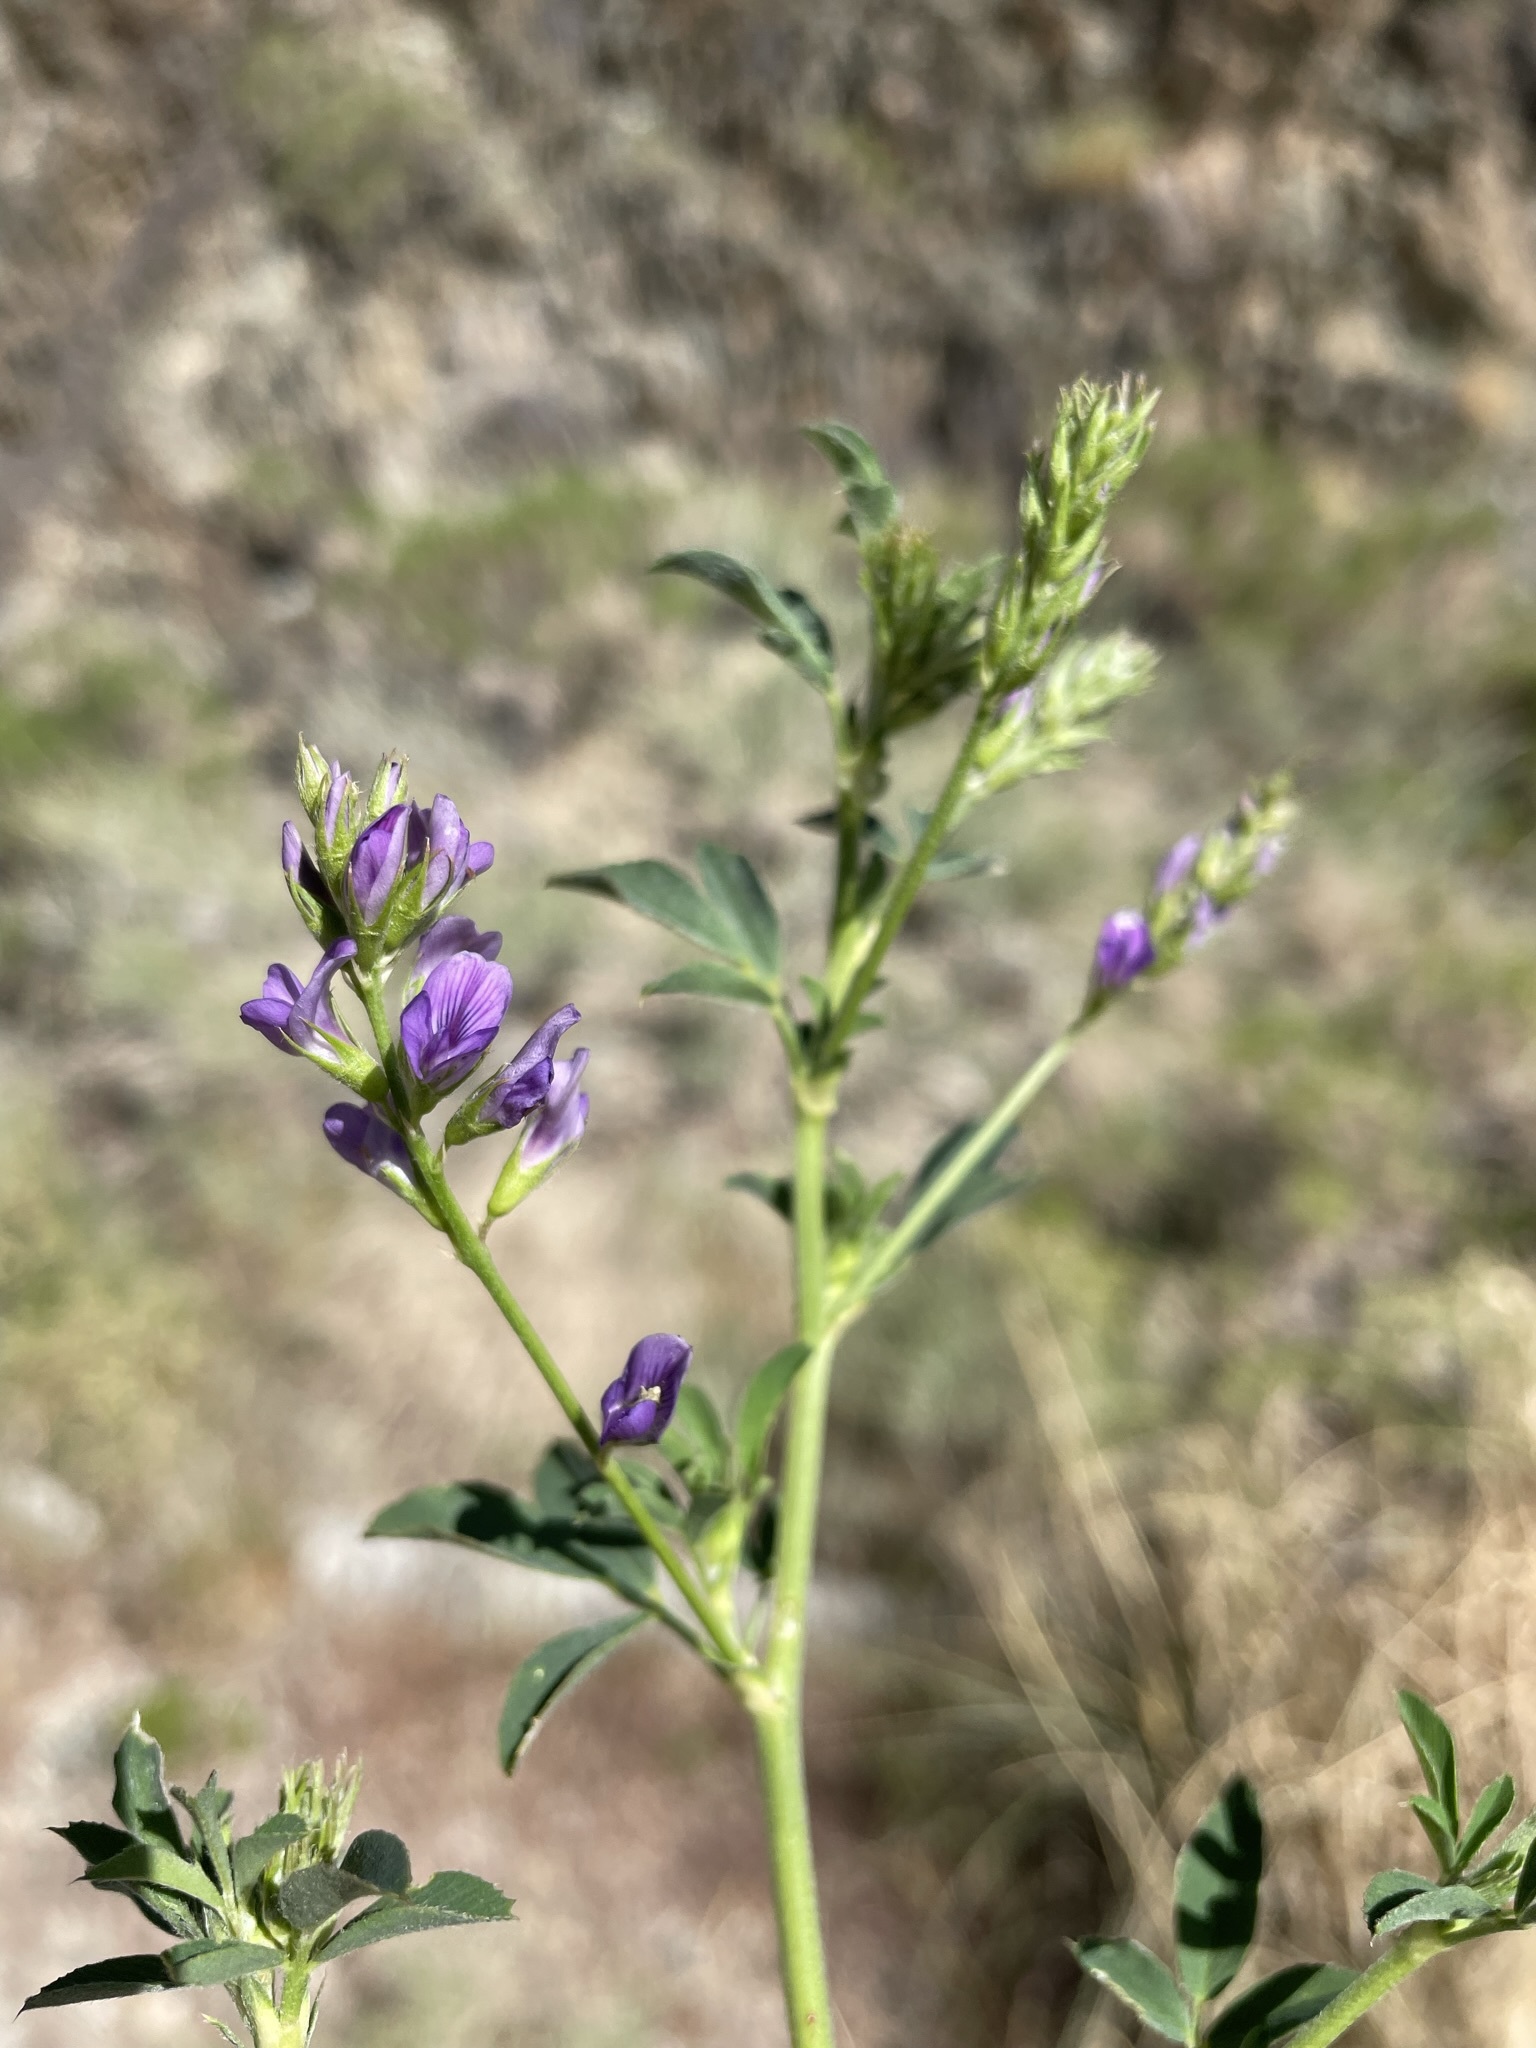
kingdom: Plantae
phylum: Tracheophyta
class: Magnoliopsida
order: Fabales
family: Fabaceae
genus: Medicago
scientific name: Medicago sativa
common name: Alfalfa
